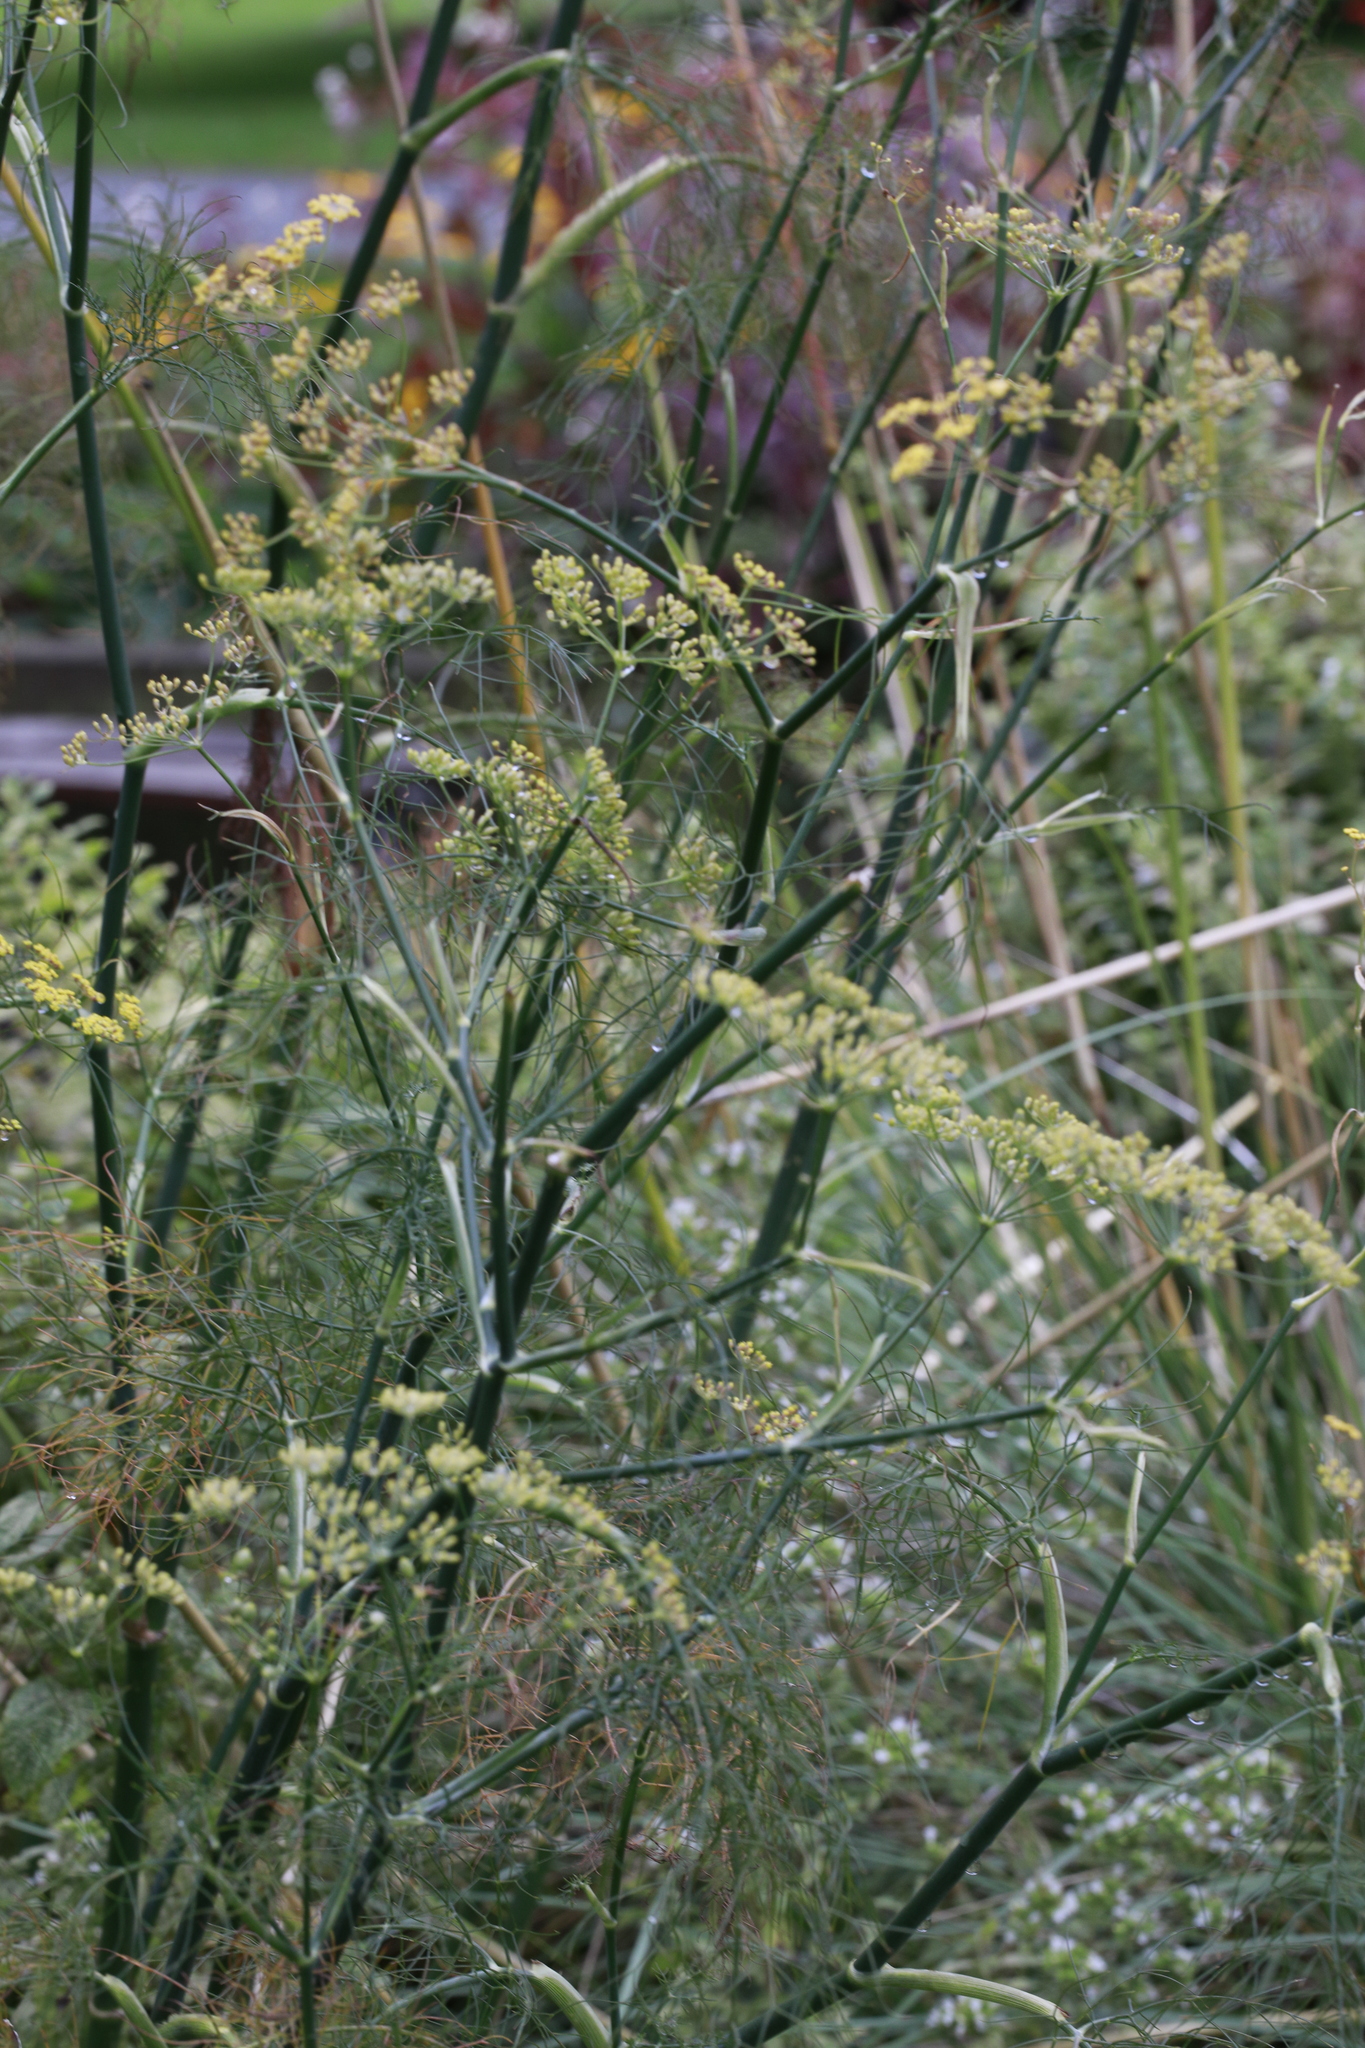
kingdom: Plantae
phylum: Tracheophyta
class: Magnoliopsida
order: Apiales
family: Apiaceae
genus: Foeniculum
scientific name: Foeniculum vulgare
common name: Fennel
